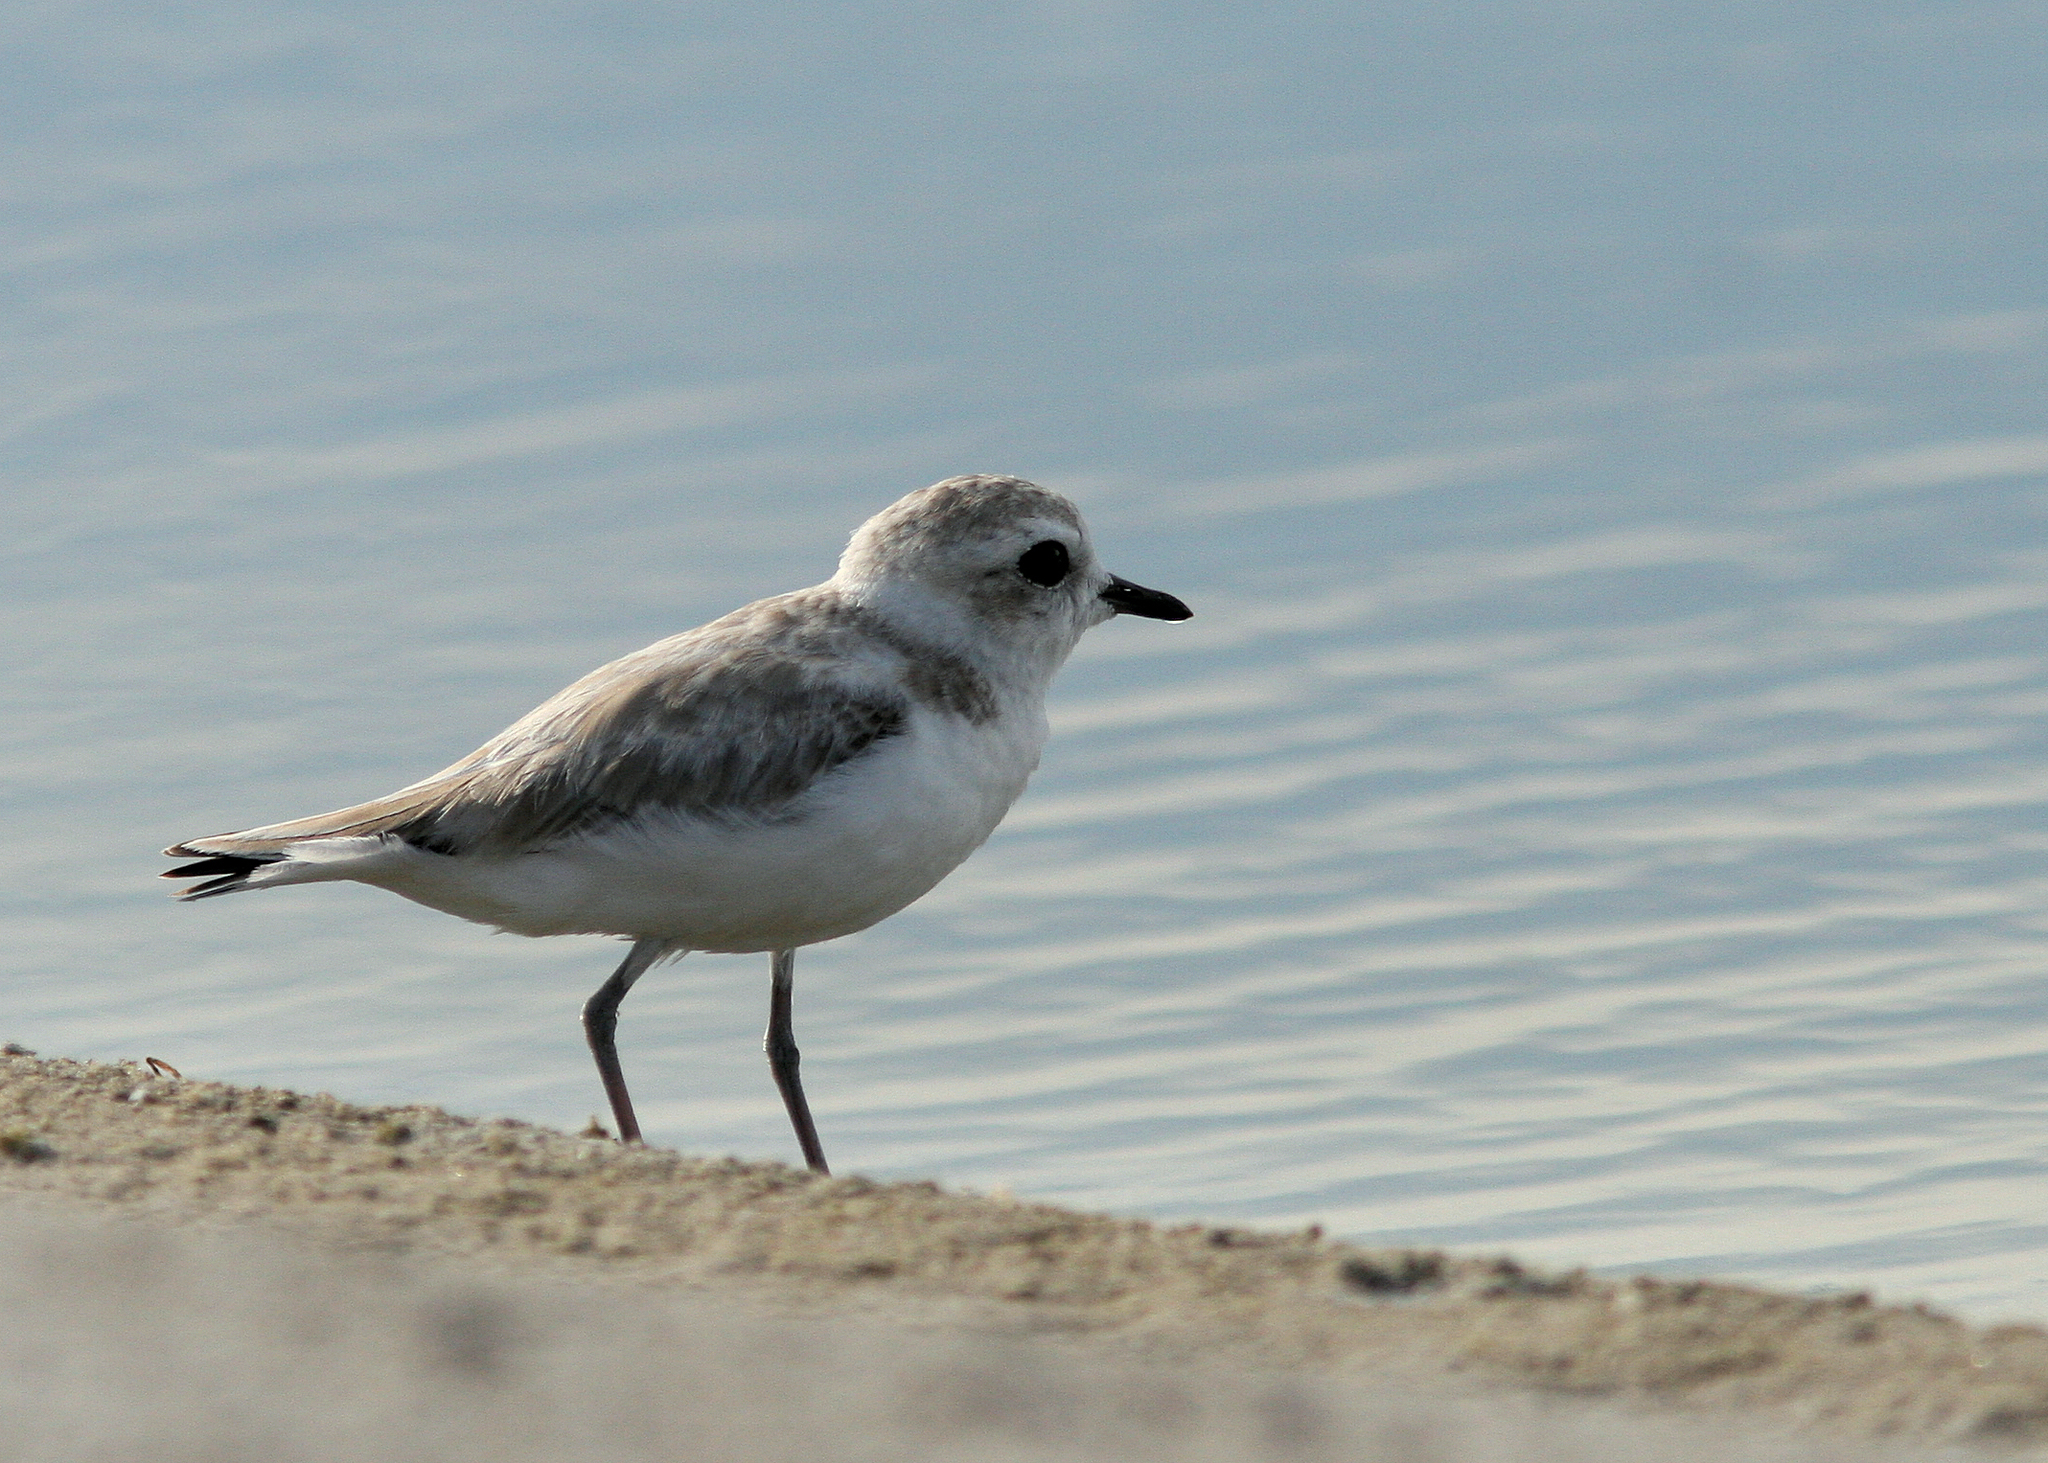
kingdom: Animalia
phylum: Chordata
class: Aves
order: Charadriiformes
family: Charadriidae
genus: Anarhynchus
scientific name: Anarhynchus
